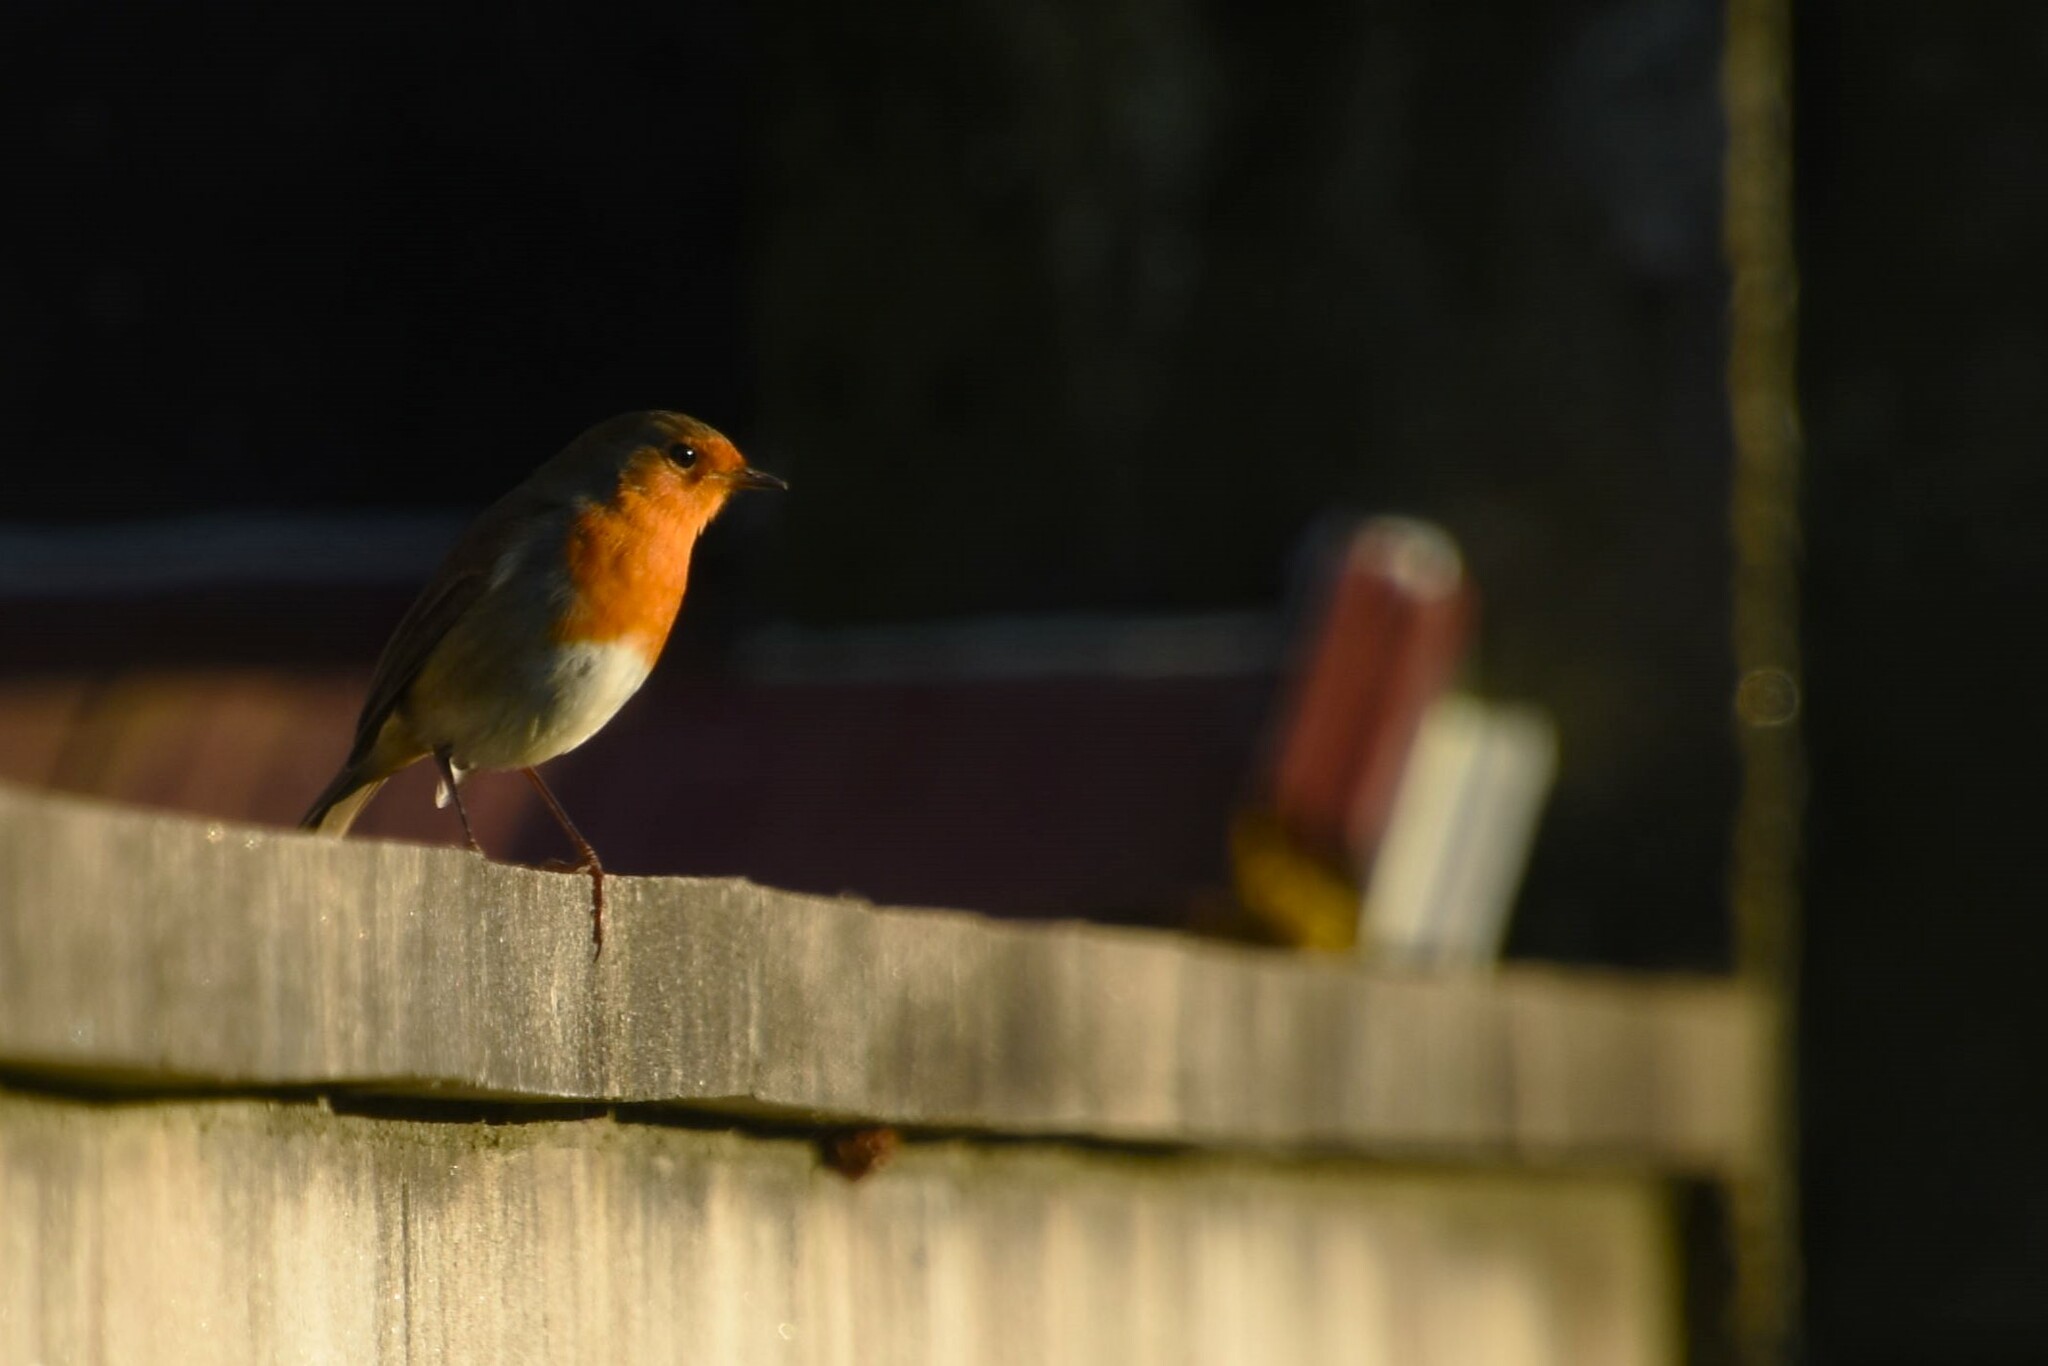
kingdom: Animalia
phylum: Chordata
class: Aves
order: Passeriformes
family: Muscicapidae
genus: Erithacus
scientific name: Erithacus rubecula
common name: European robin
